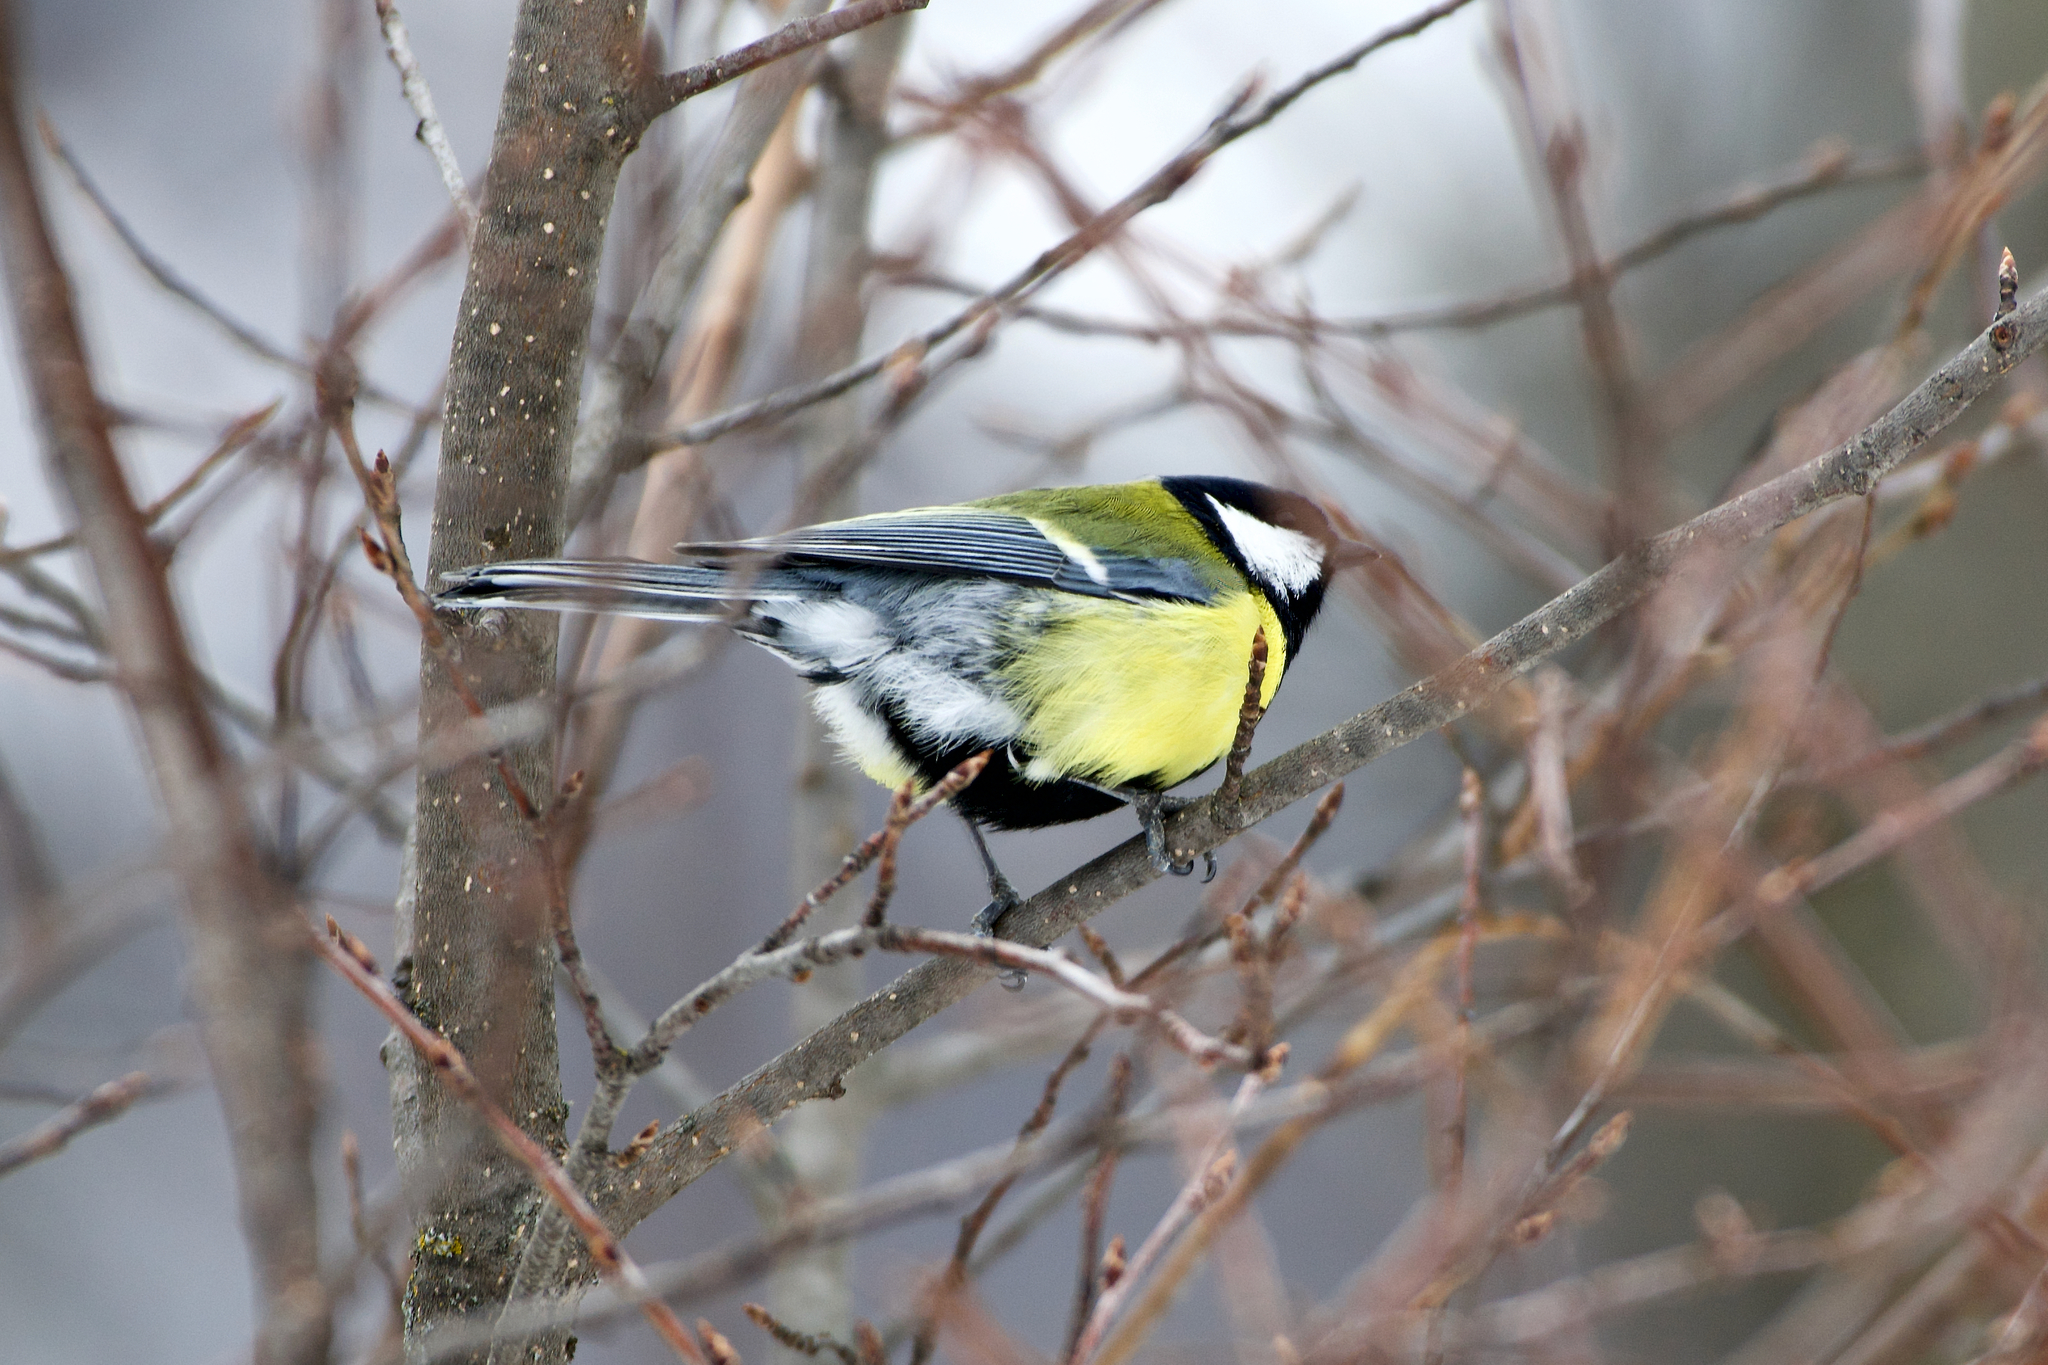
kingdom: Animalia
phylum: Chordata
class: Aves
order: Passeriformes
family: Paridae
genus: Parus
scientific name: Parus major
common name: Great tit
